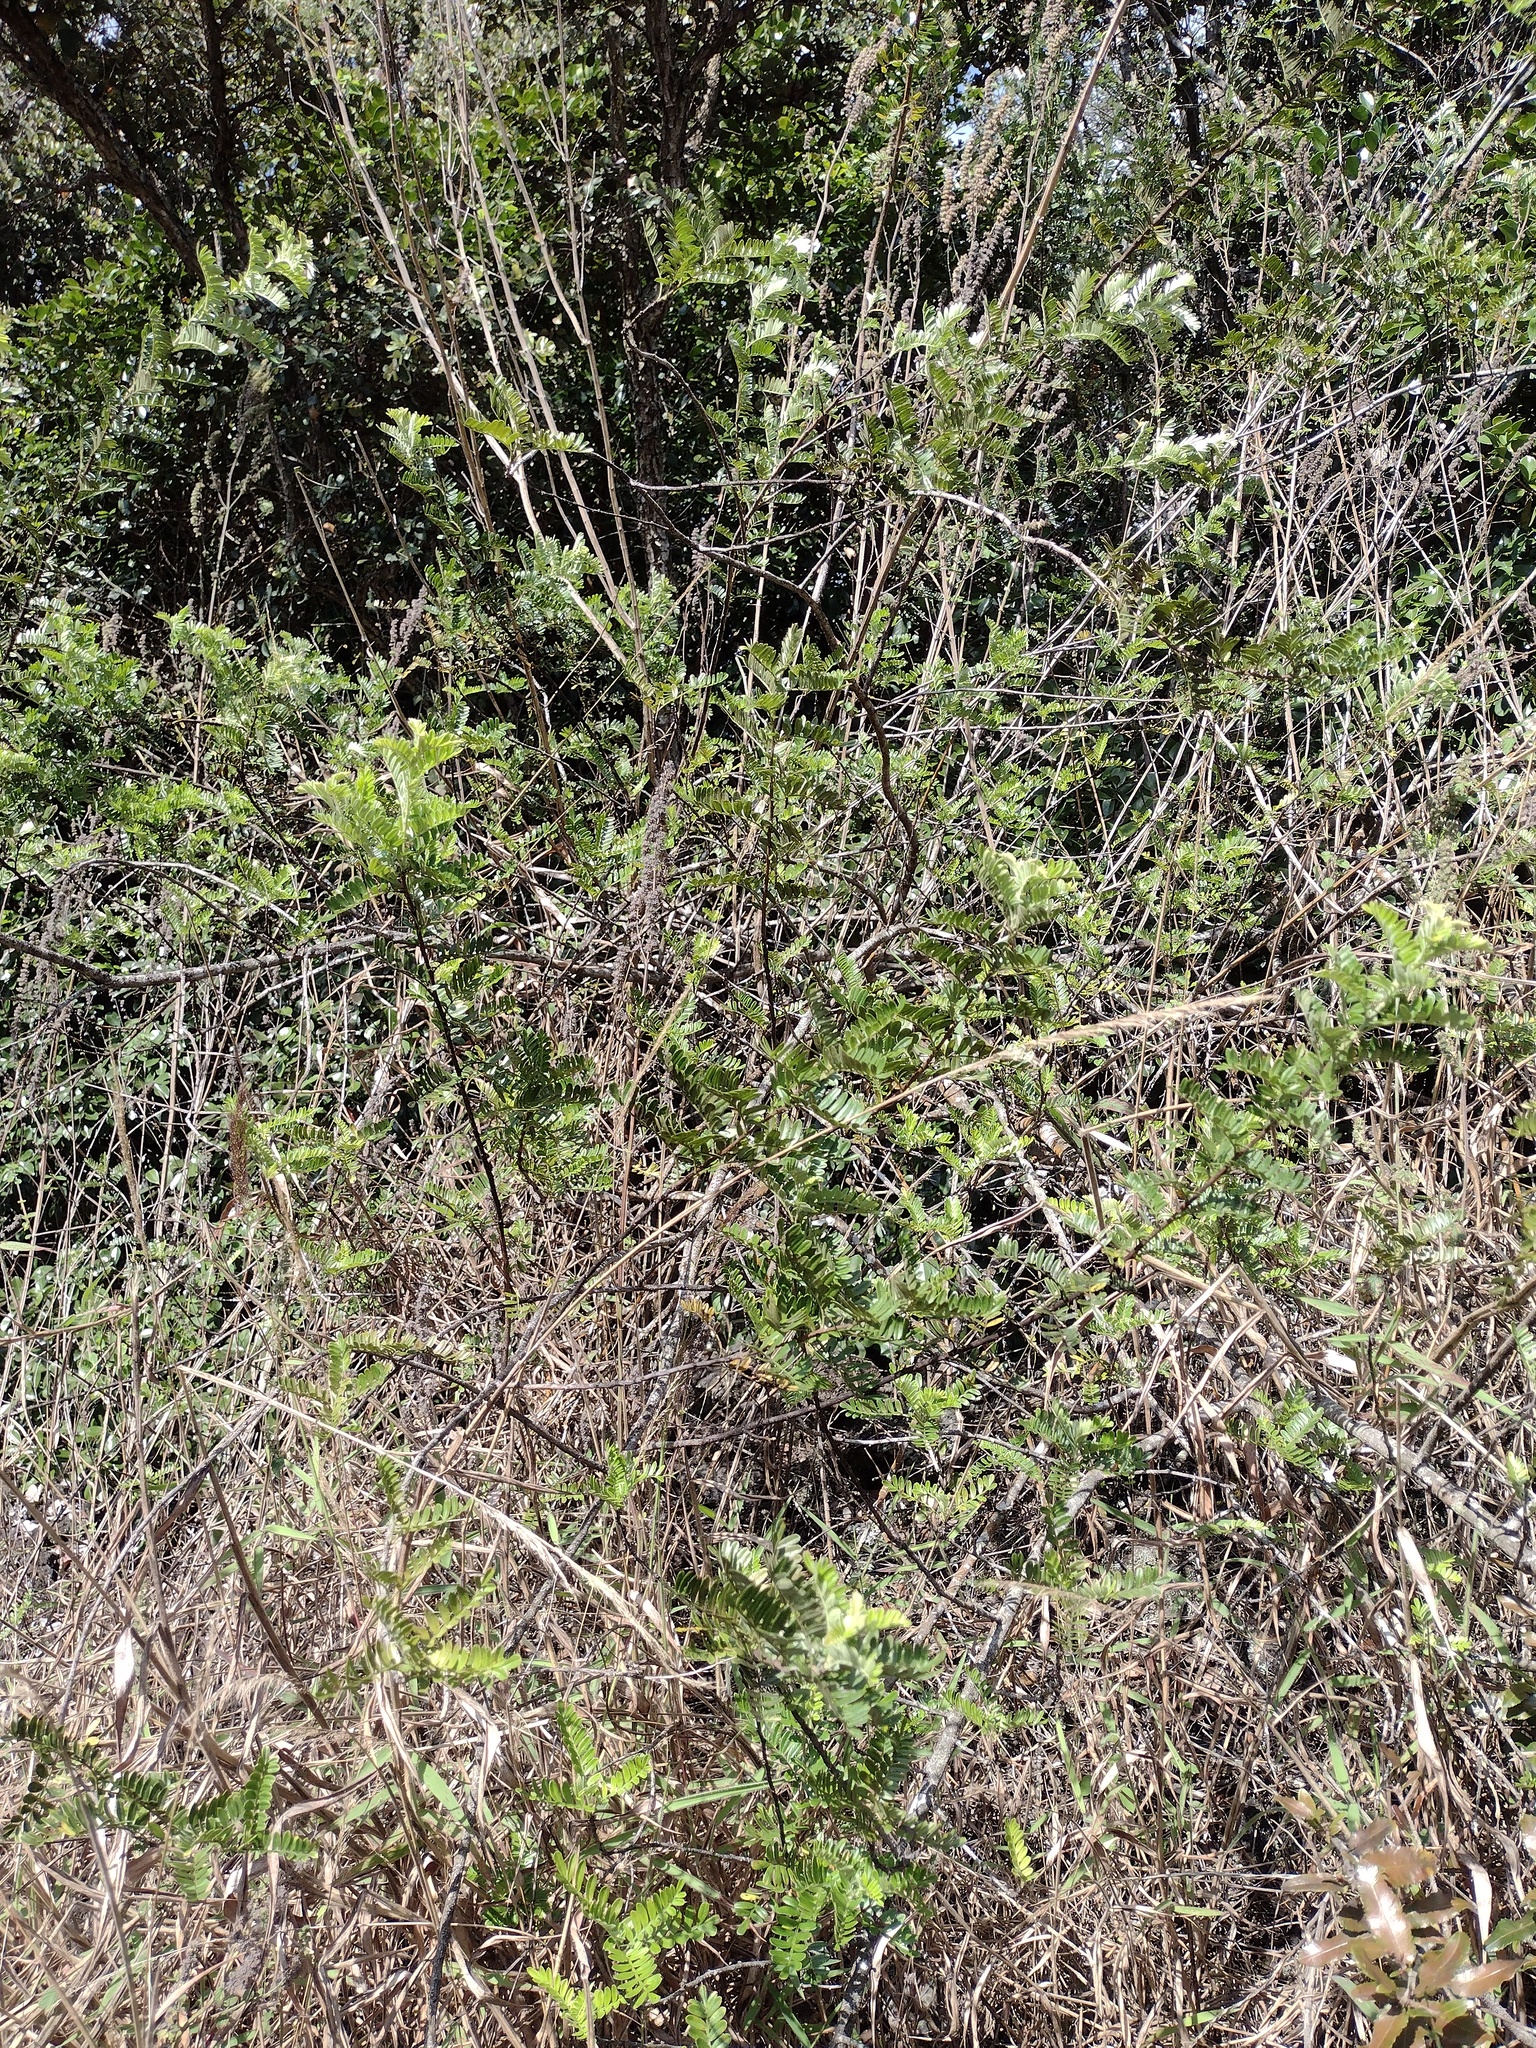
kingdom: Plantae
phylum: Tracheophyta
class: Magnoliopsida
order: Rosales
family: Rosaceae
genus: Osteomeles
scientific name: Osteomeles anthyllidifolia
